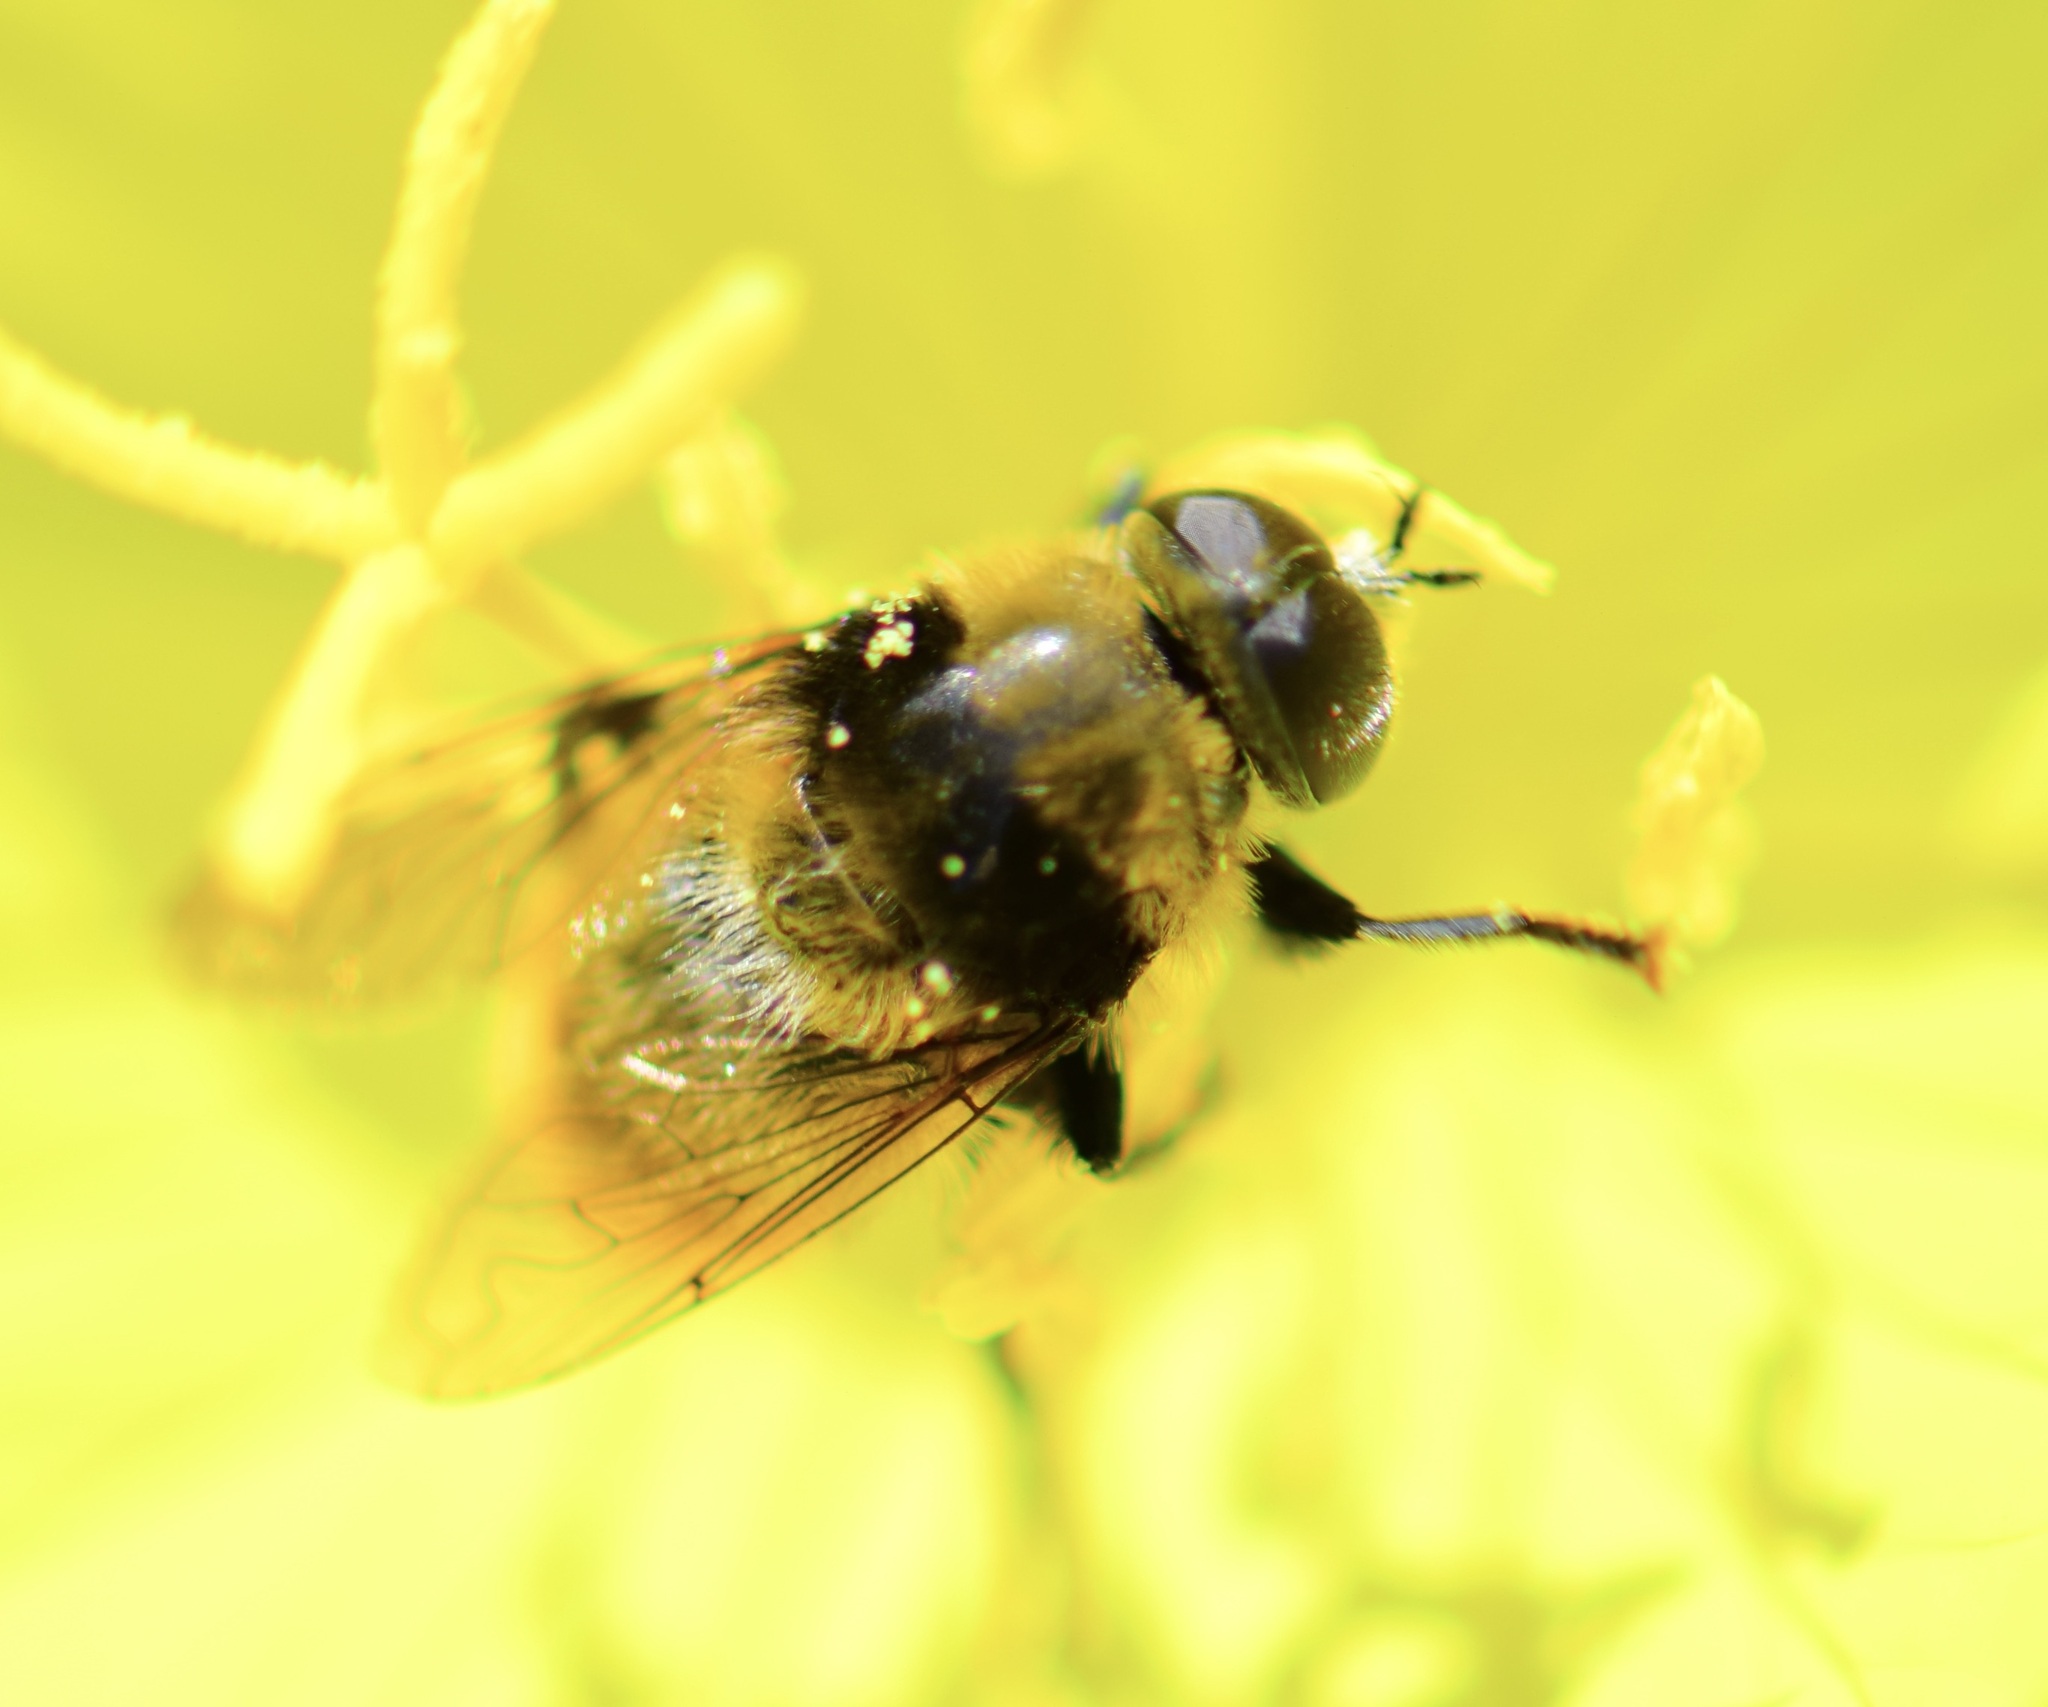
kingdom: Animalia
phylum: Arthropoda
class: Insecta
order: Diptera
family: Syrphidae
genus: Merodon
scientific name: Merodon equestris
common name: Greater bulb-fly
